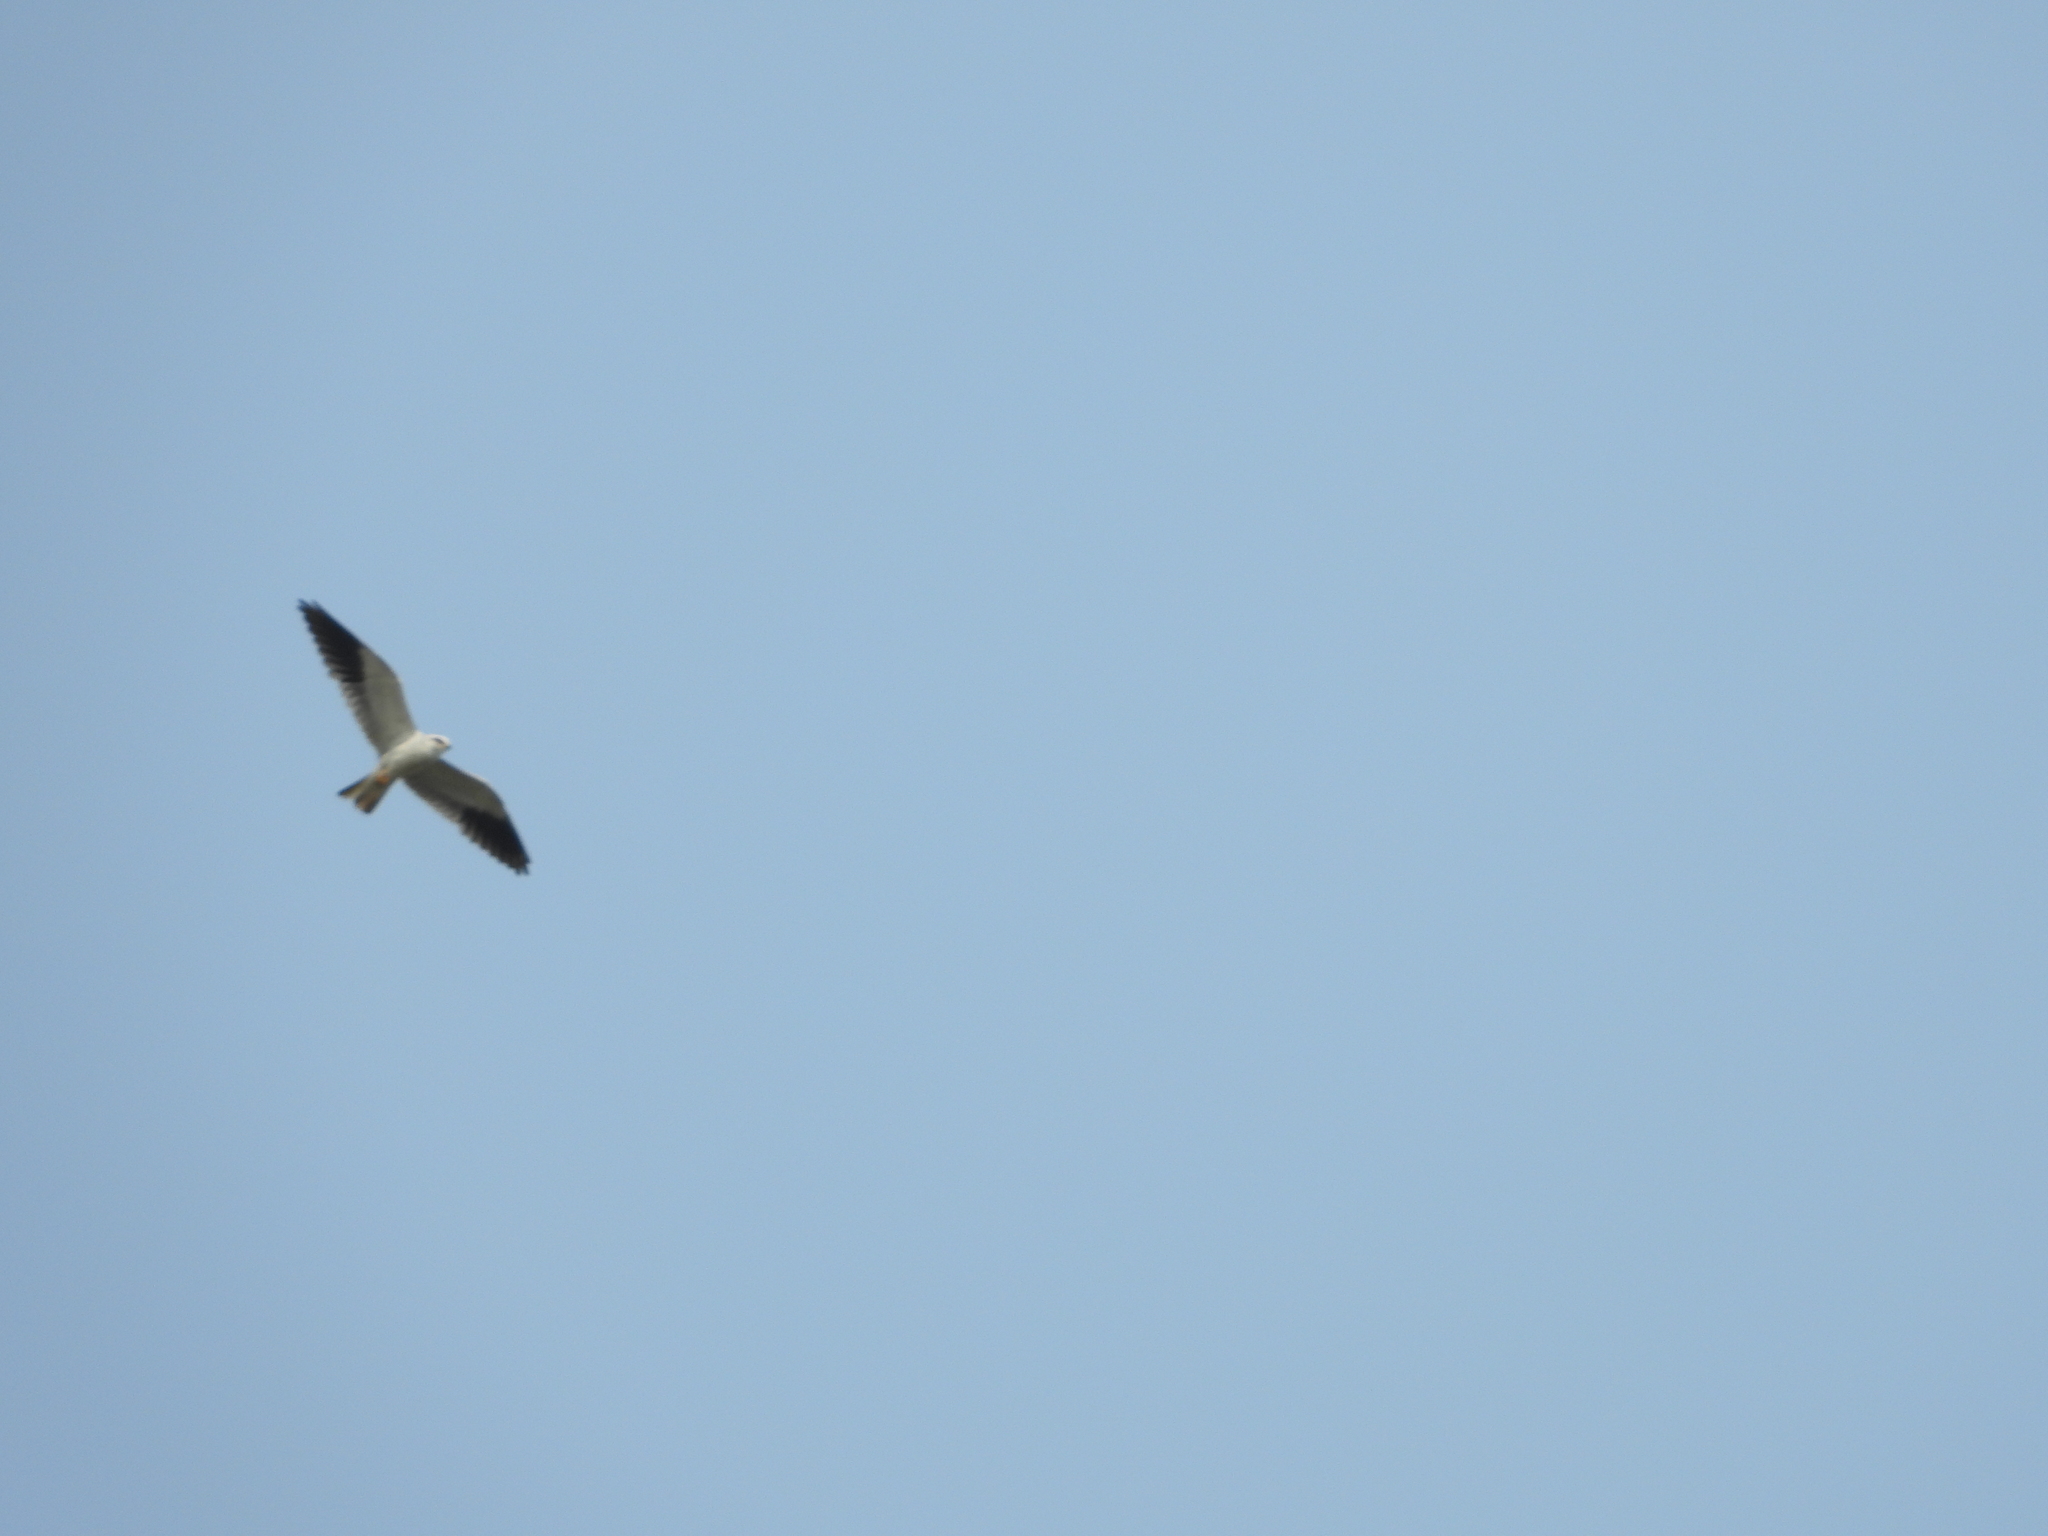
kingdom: Animalia
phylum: Chordata
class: Aves
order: Accipitriformes
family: Accipitridae
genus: Elanus
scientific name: Elanus caeruleus
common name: Black-winged kite
